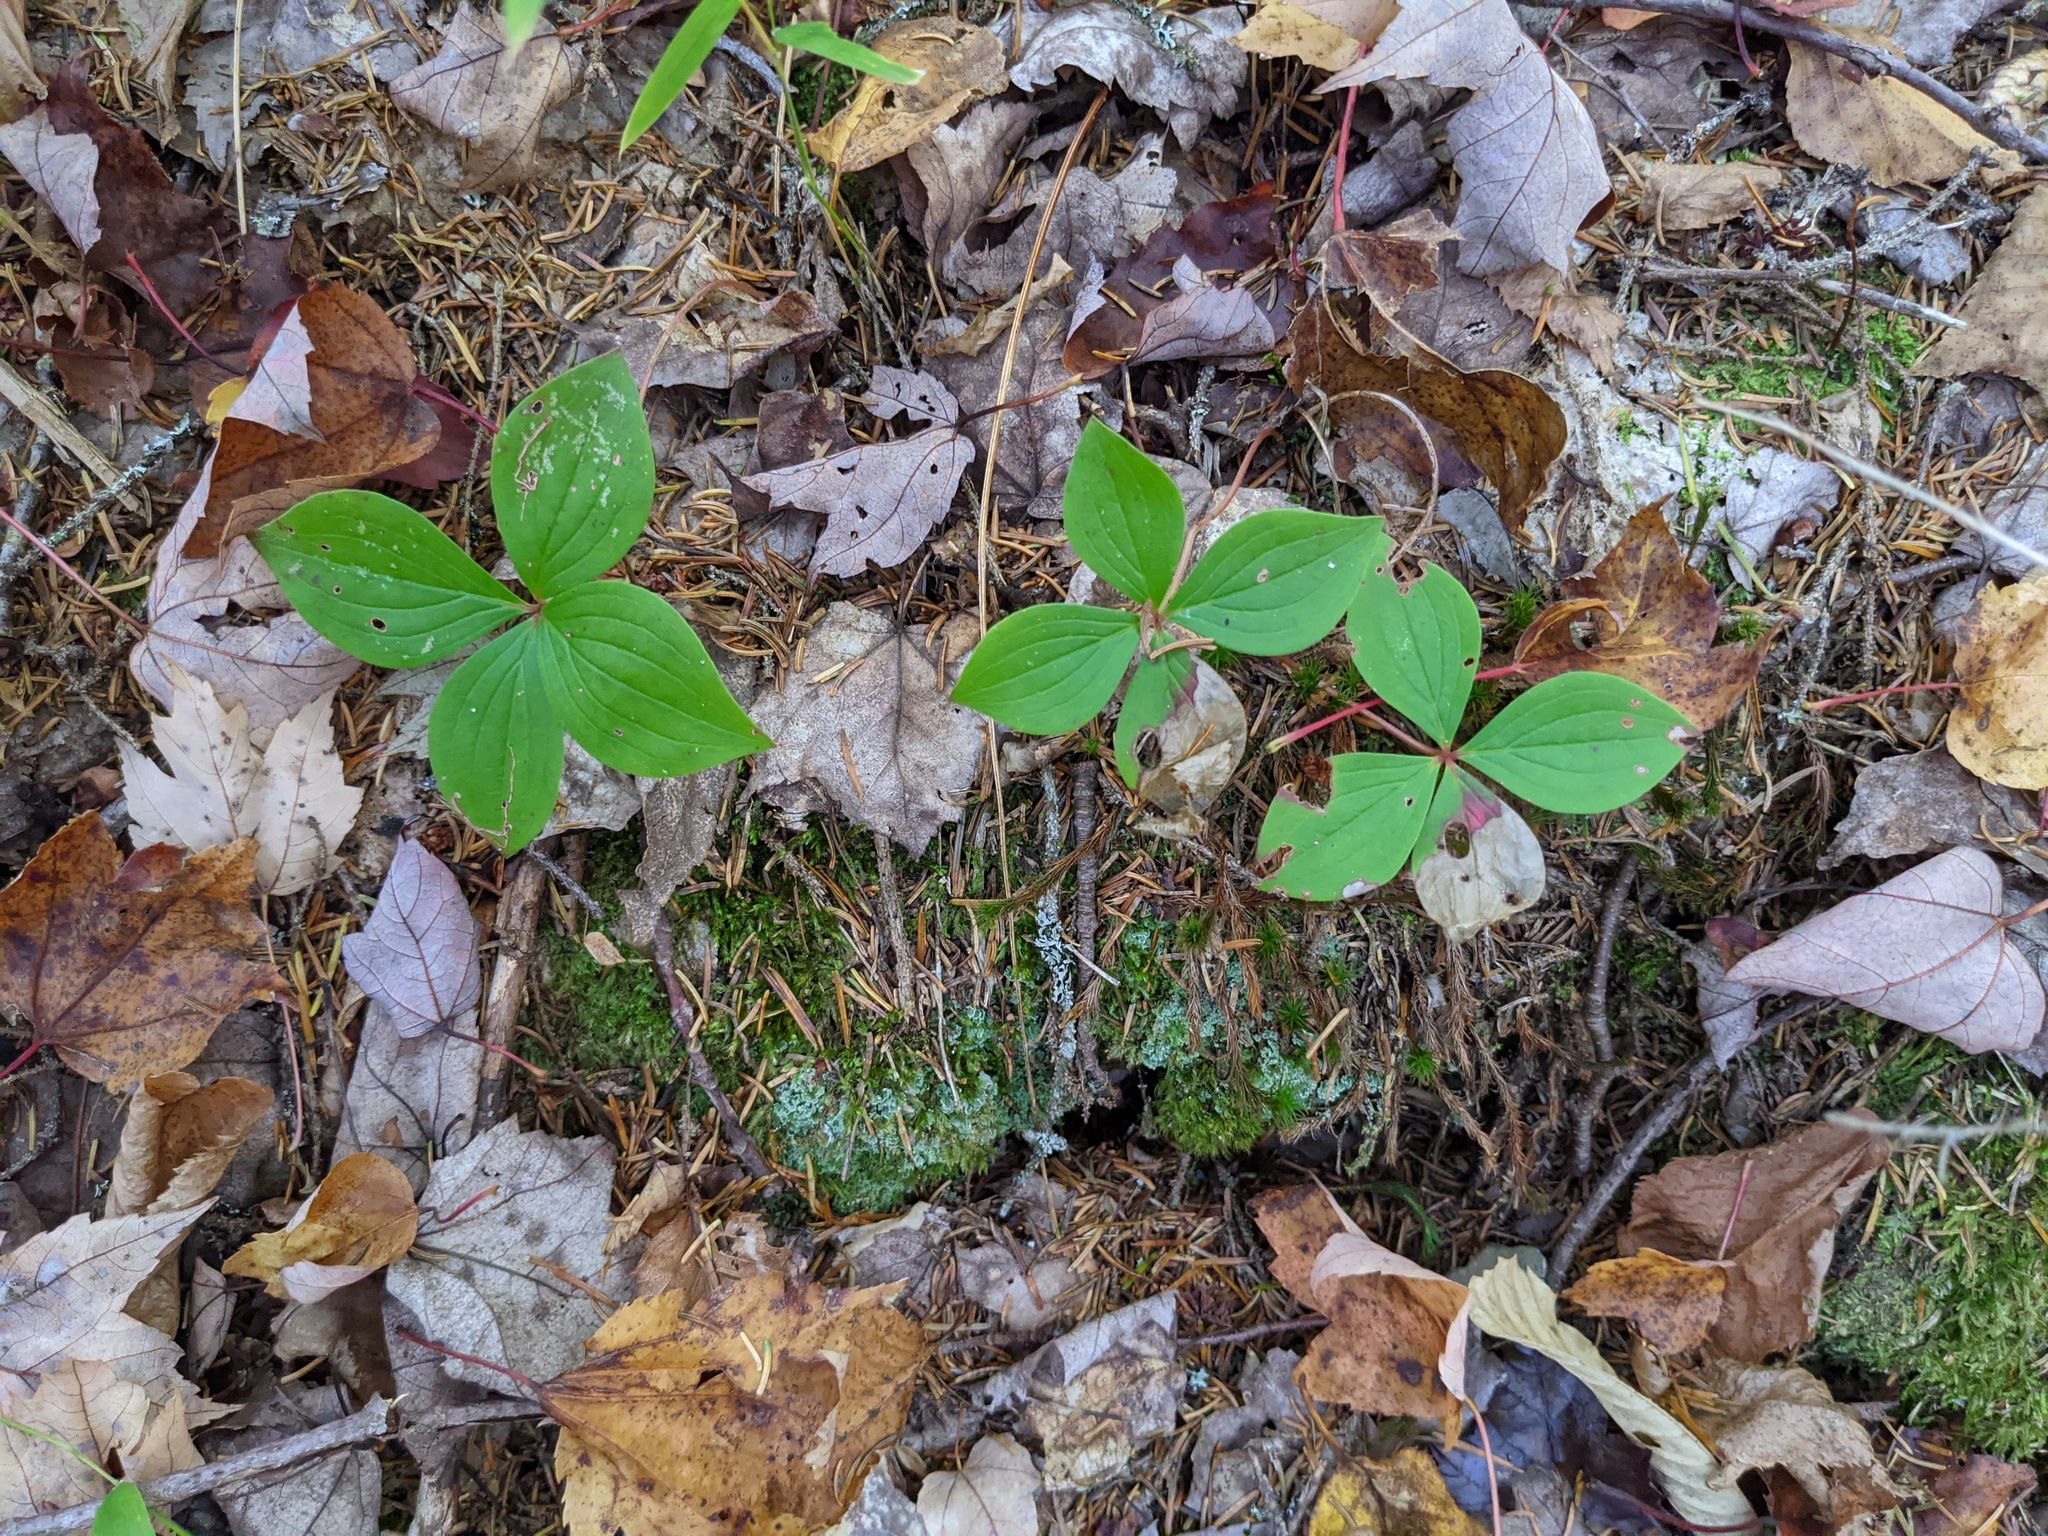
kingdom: Plantae
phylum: Tracheophyta
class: Magnoliopsida
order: Cornales
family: Cornaceae
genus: Cornus
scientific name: Cornus canadensis
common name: Creeping dogwood
